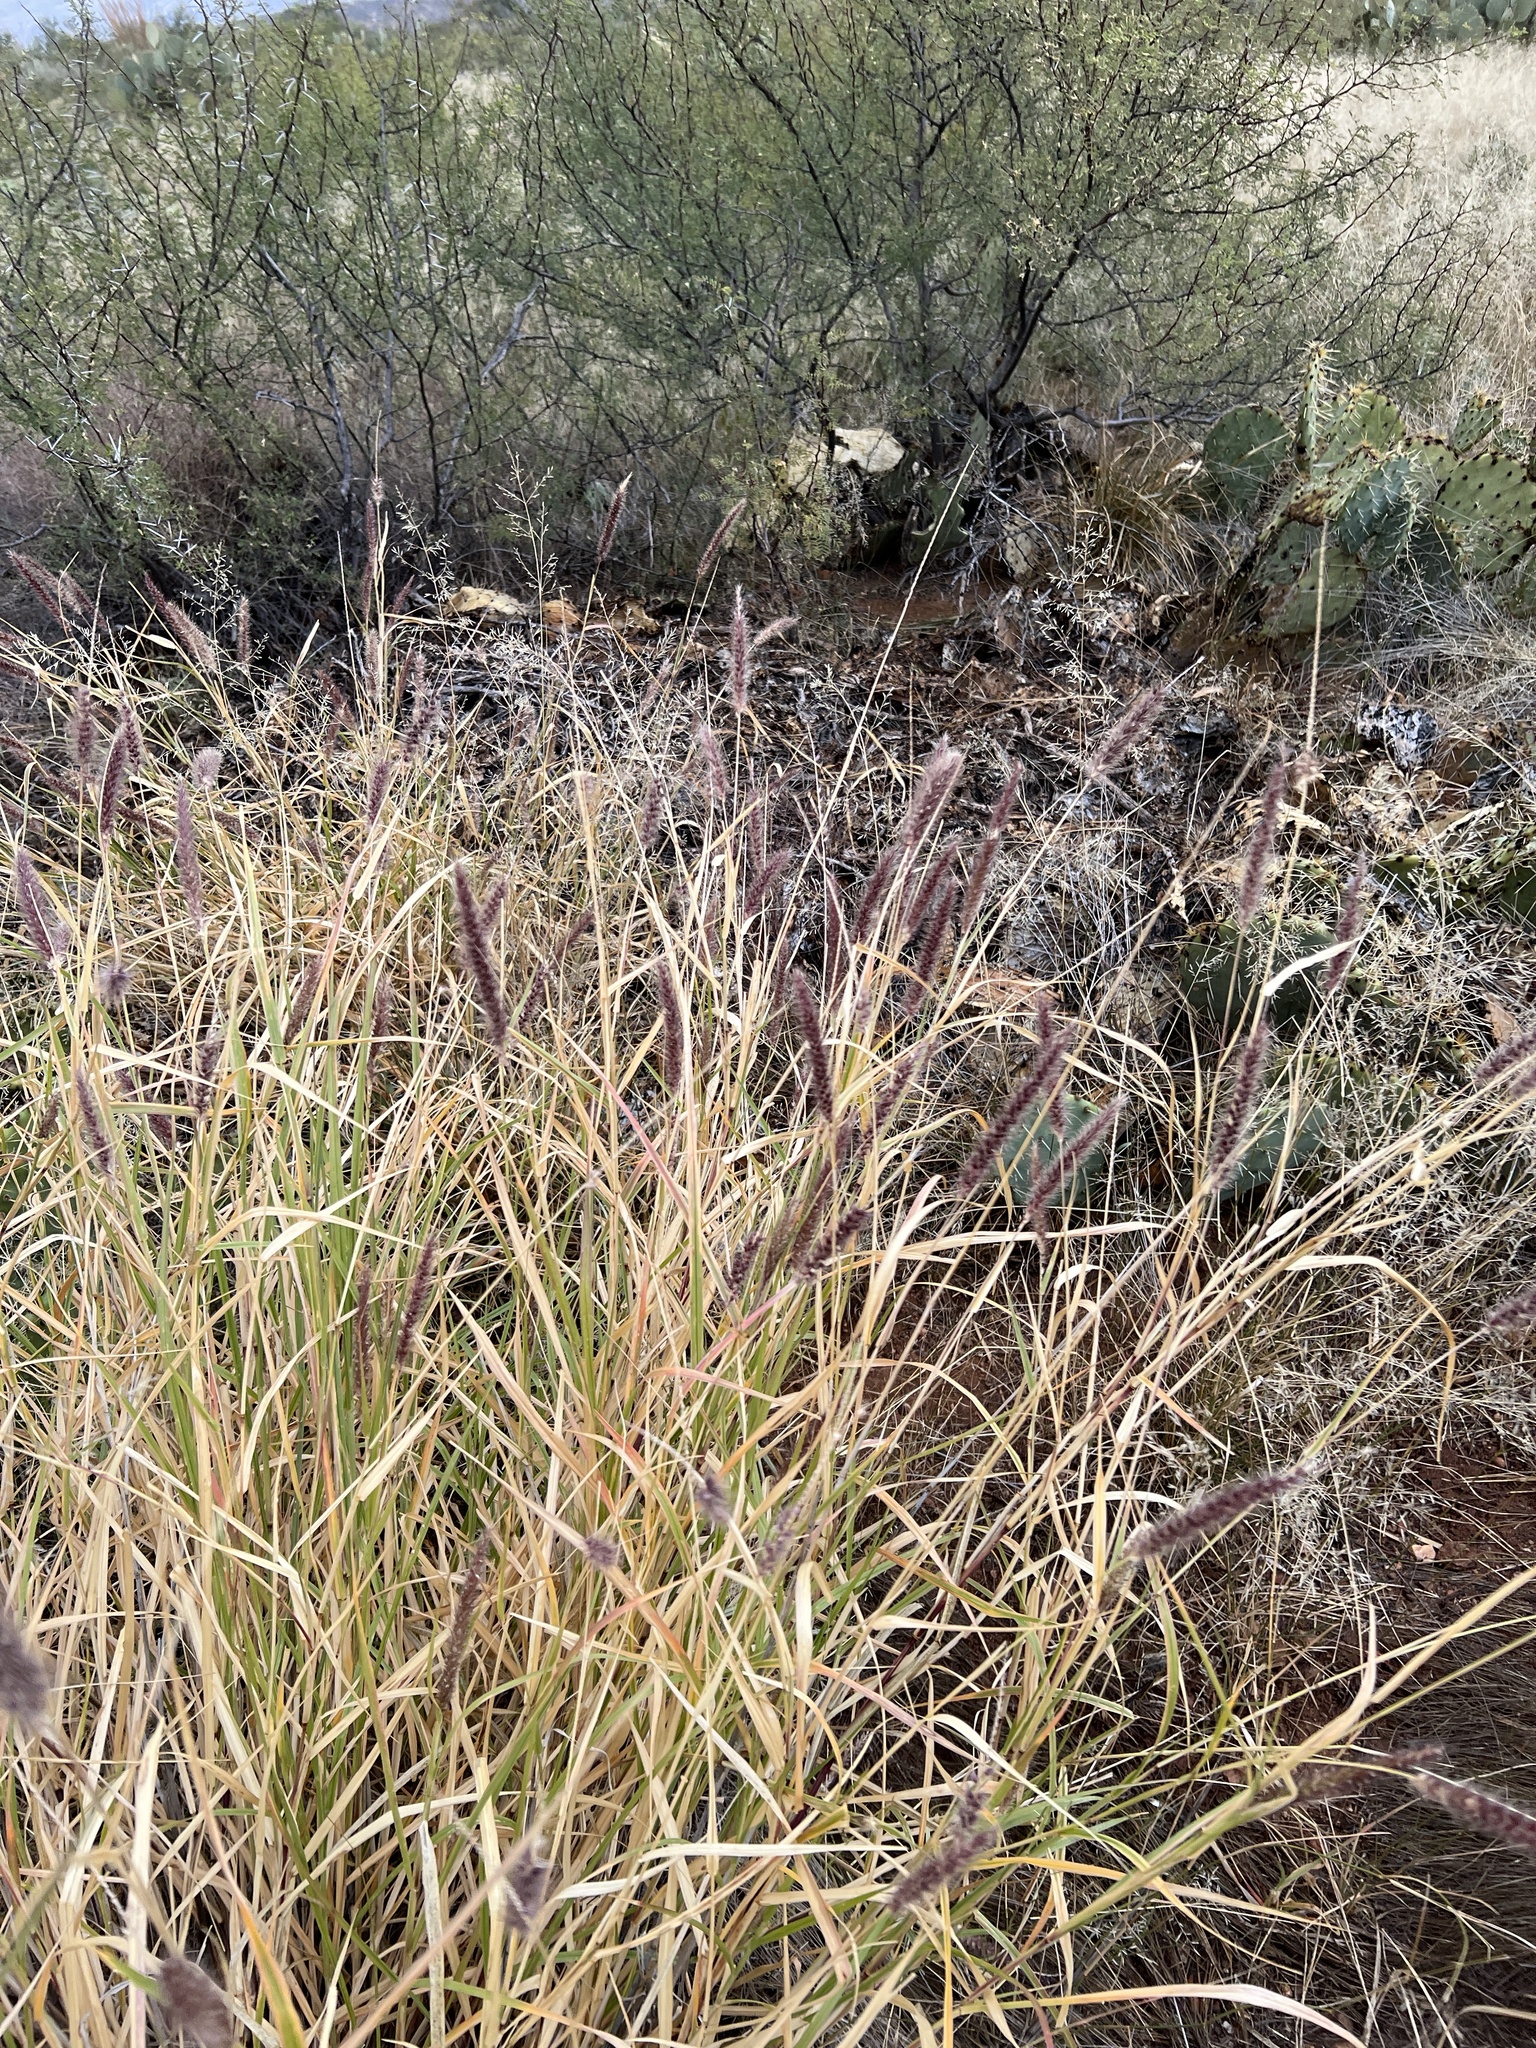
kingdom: Plantae
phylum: Tracheophyta
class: Liliopsida
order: Poales
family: Poaceae
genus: Cenchrus
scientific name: Cenchrus ciliaris
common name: Buffelgrass
